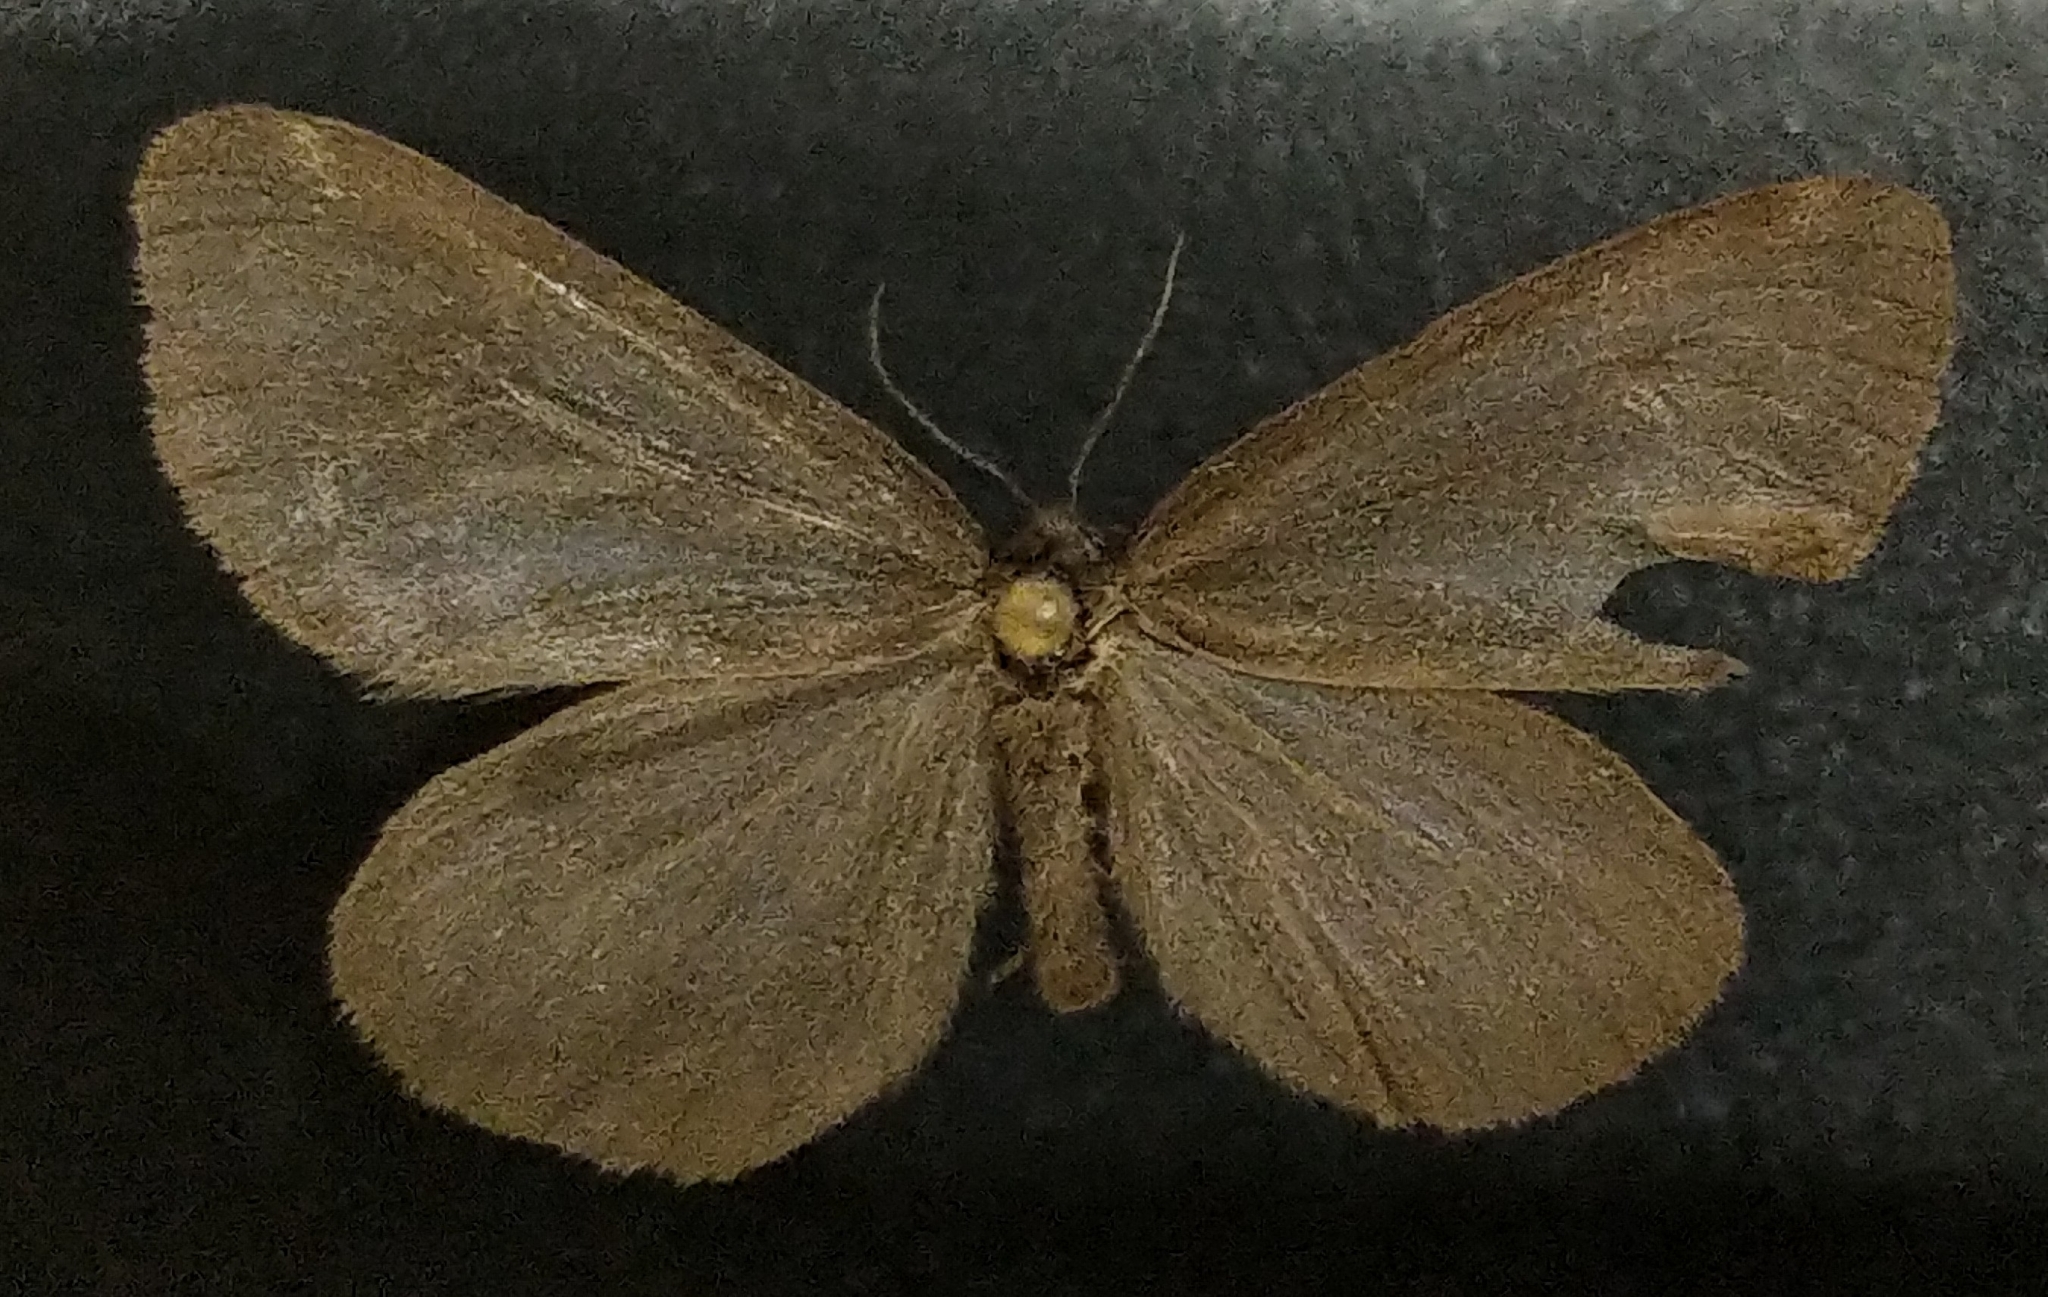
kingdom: Animalia
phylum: Arthropoda
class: Insecta
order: Lepidoptera
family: Erebidae
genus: Dodia
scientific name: Dodia albertae
